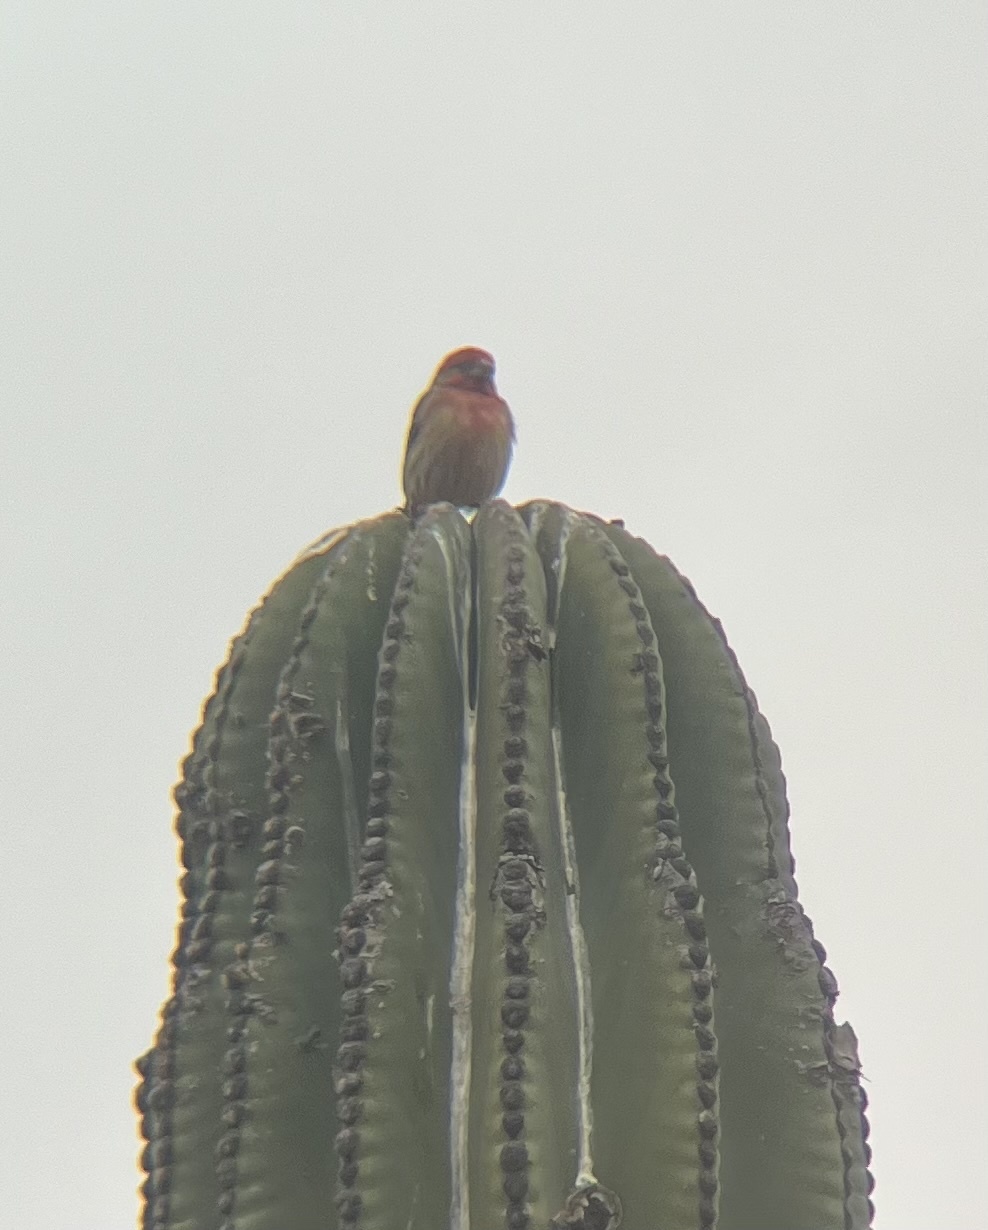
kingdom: Animalia
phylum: Chordata
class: Aves
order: Passeriformes
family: Fringillidae
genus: Haemorhous
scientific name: Haemorhous mexicanus
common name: House finch
